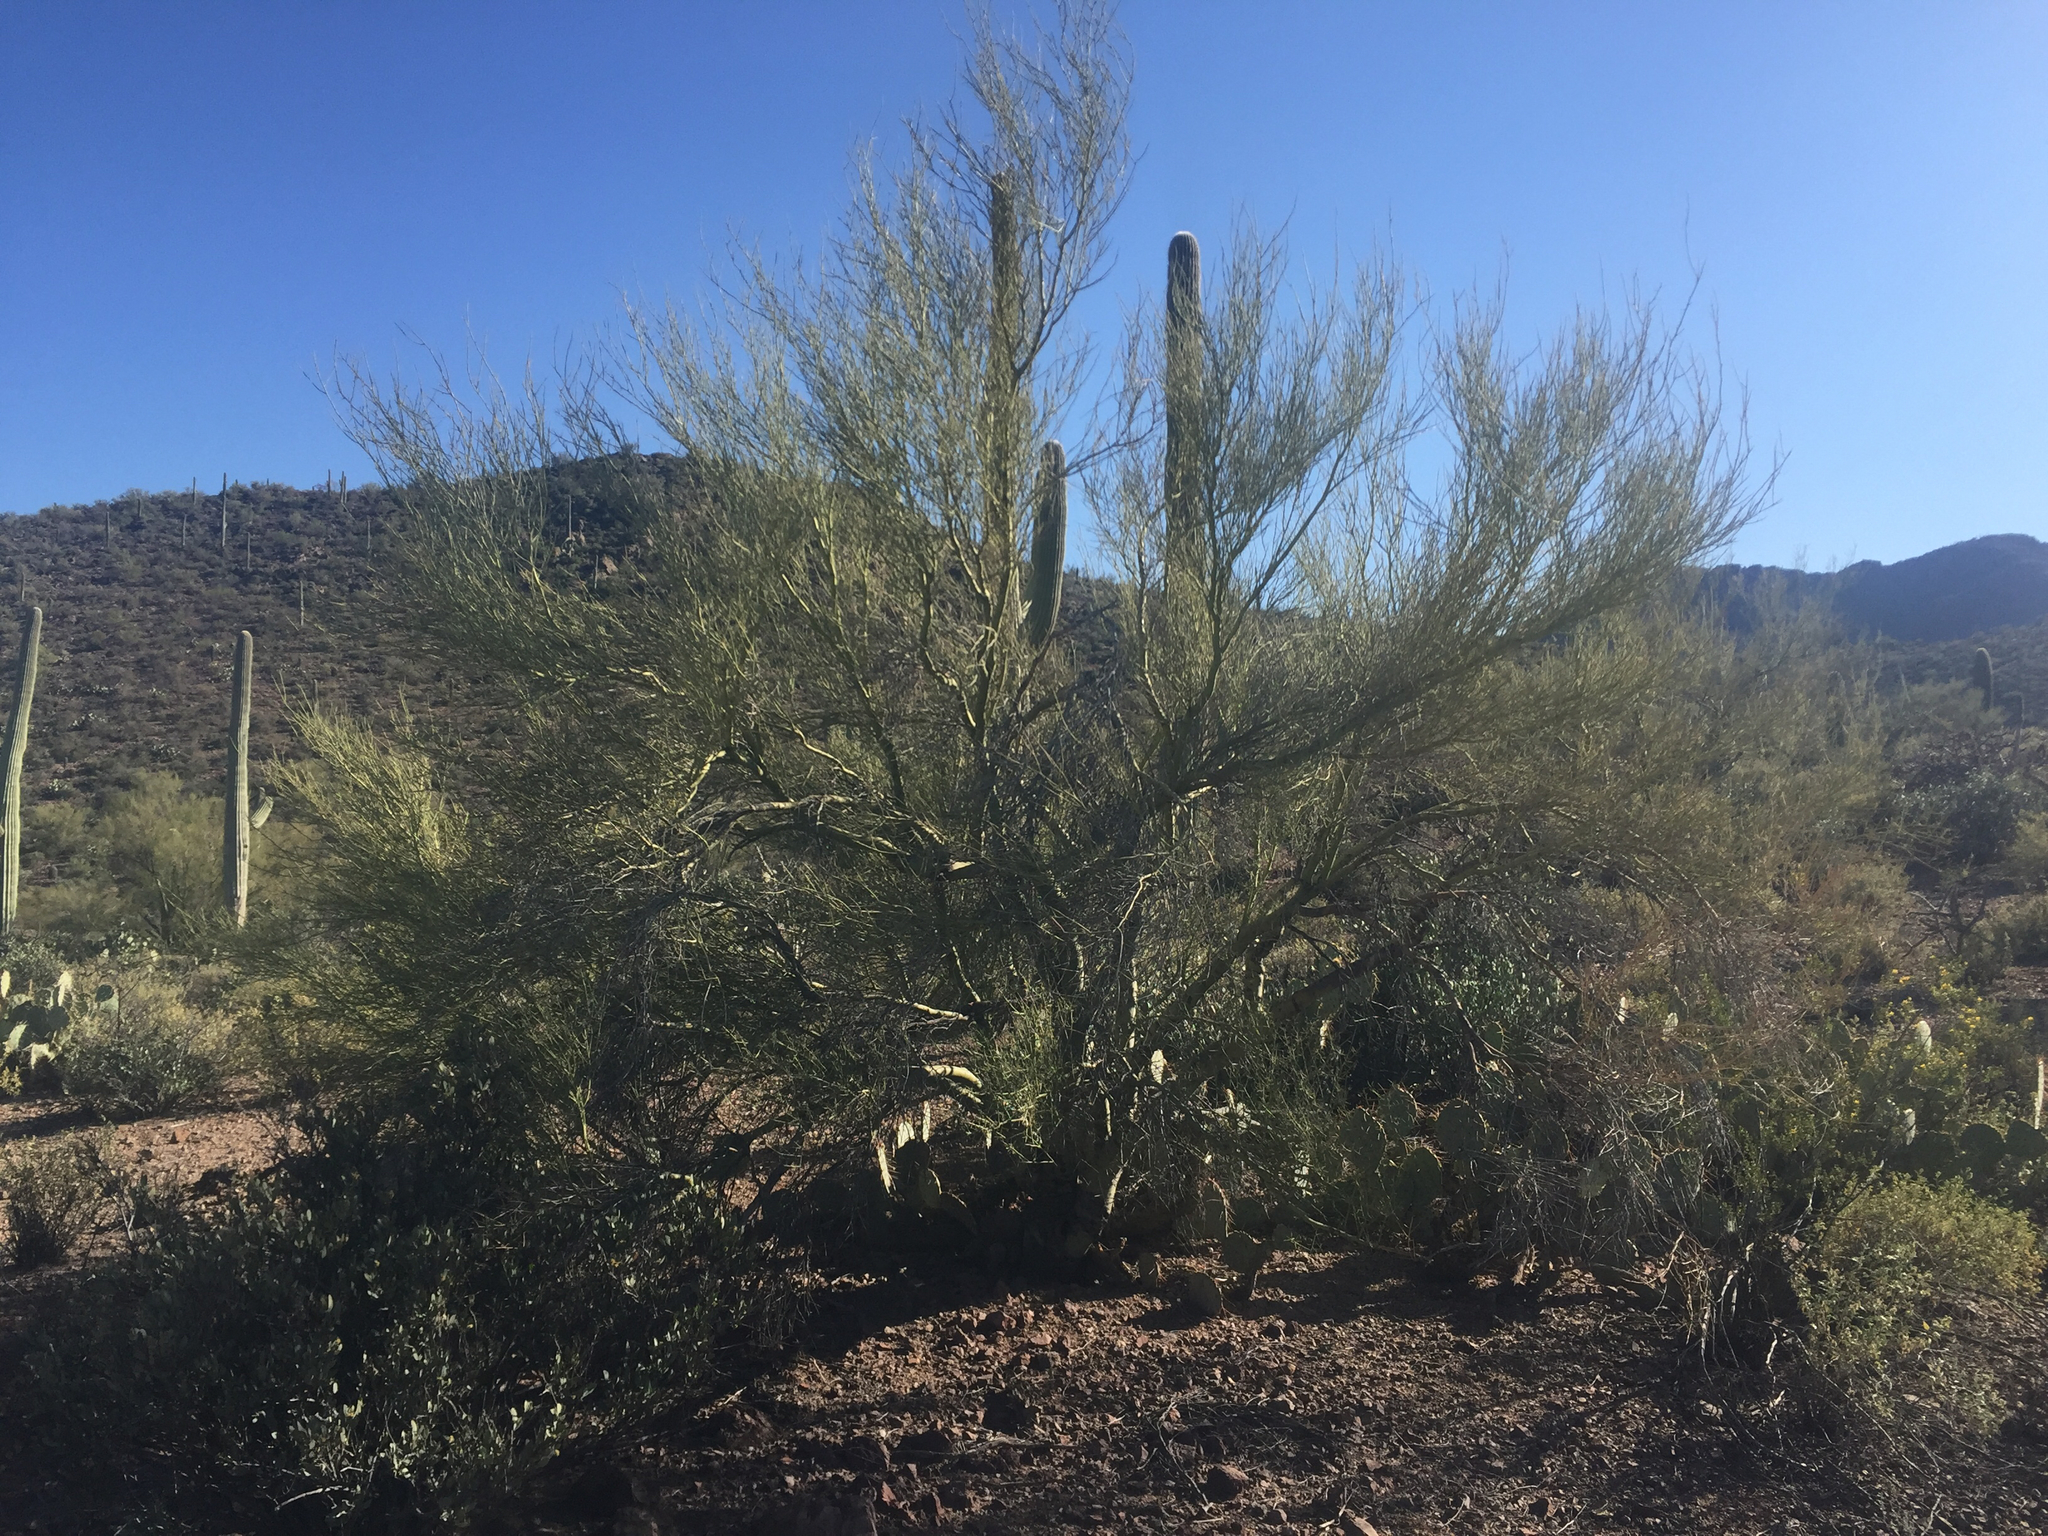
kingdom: Plantae
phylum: Tracheophyta
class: Magnoliopsida
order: Fabales
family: Fabaceae
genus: Parkinsonia
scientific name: Parkinsonia microphylla
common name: Yellow paloverde
